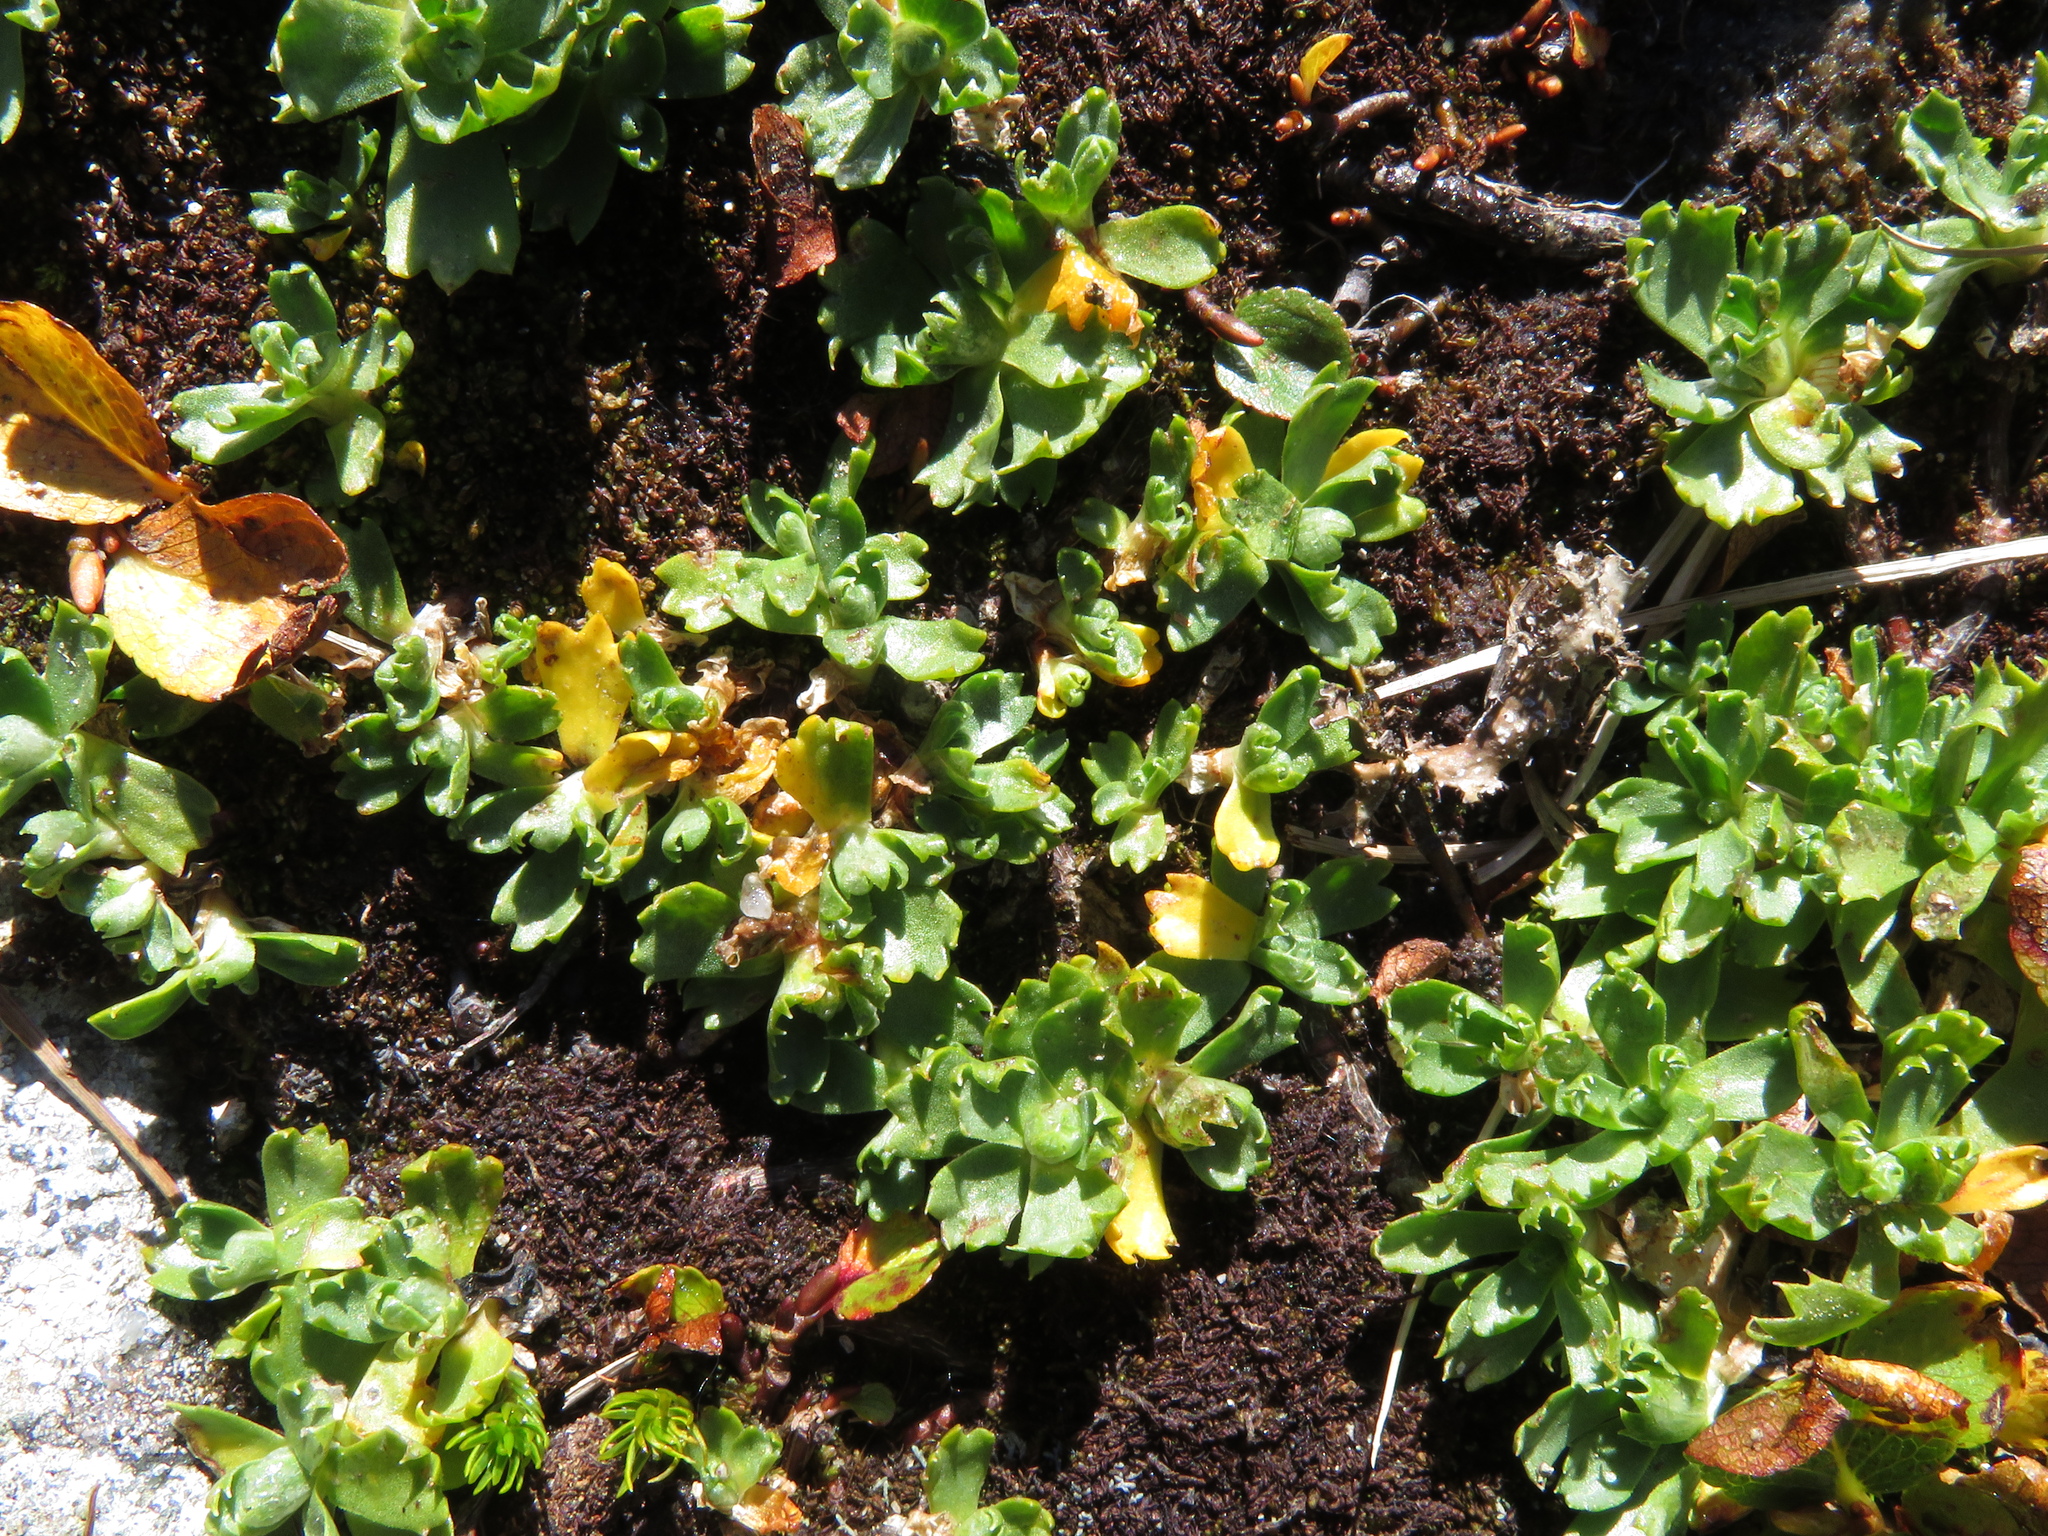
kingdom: Plantae
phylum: Tracheophyta
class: Magnoliopsida
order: Ericales
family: Primulaceae
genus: Primula
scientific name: Primula minima
